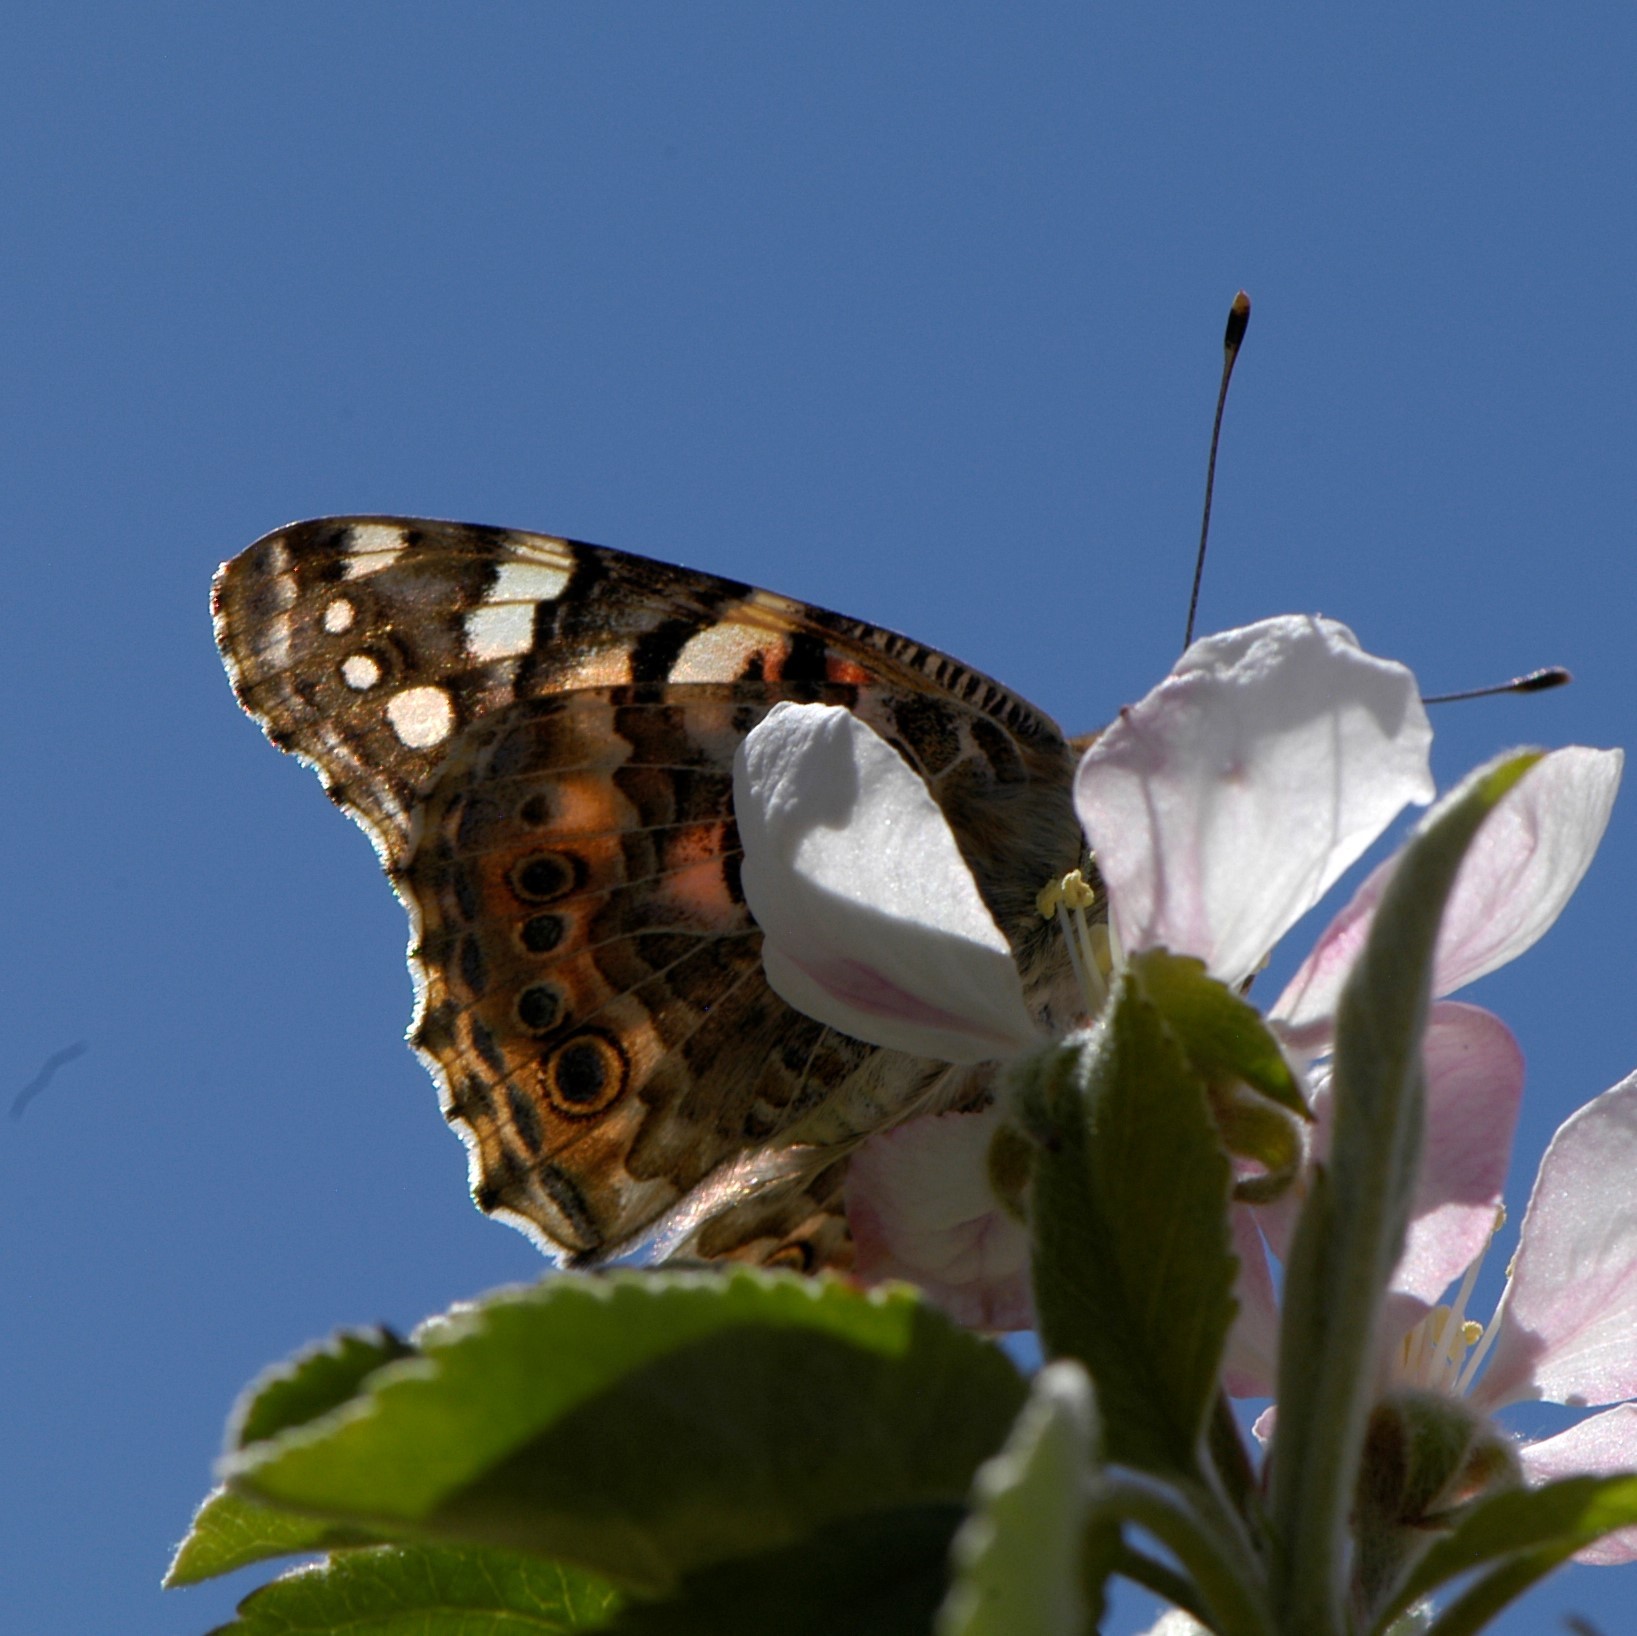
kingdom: Animalia
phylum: Arthropoda
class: Insecta
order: Lepidoptera
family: Nymphalidae
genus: Vanessa
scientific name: Vanessa cardui
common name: Painted lady
